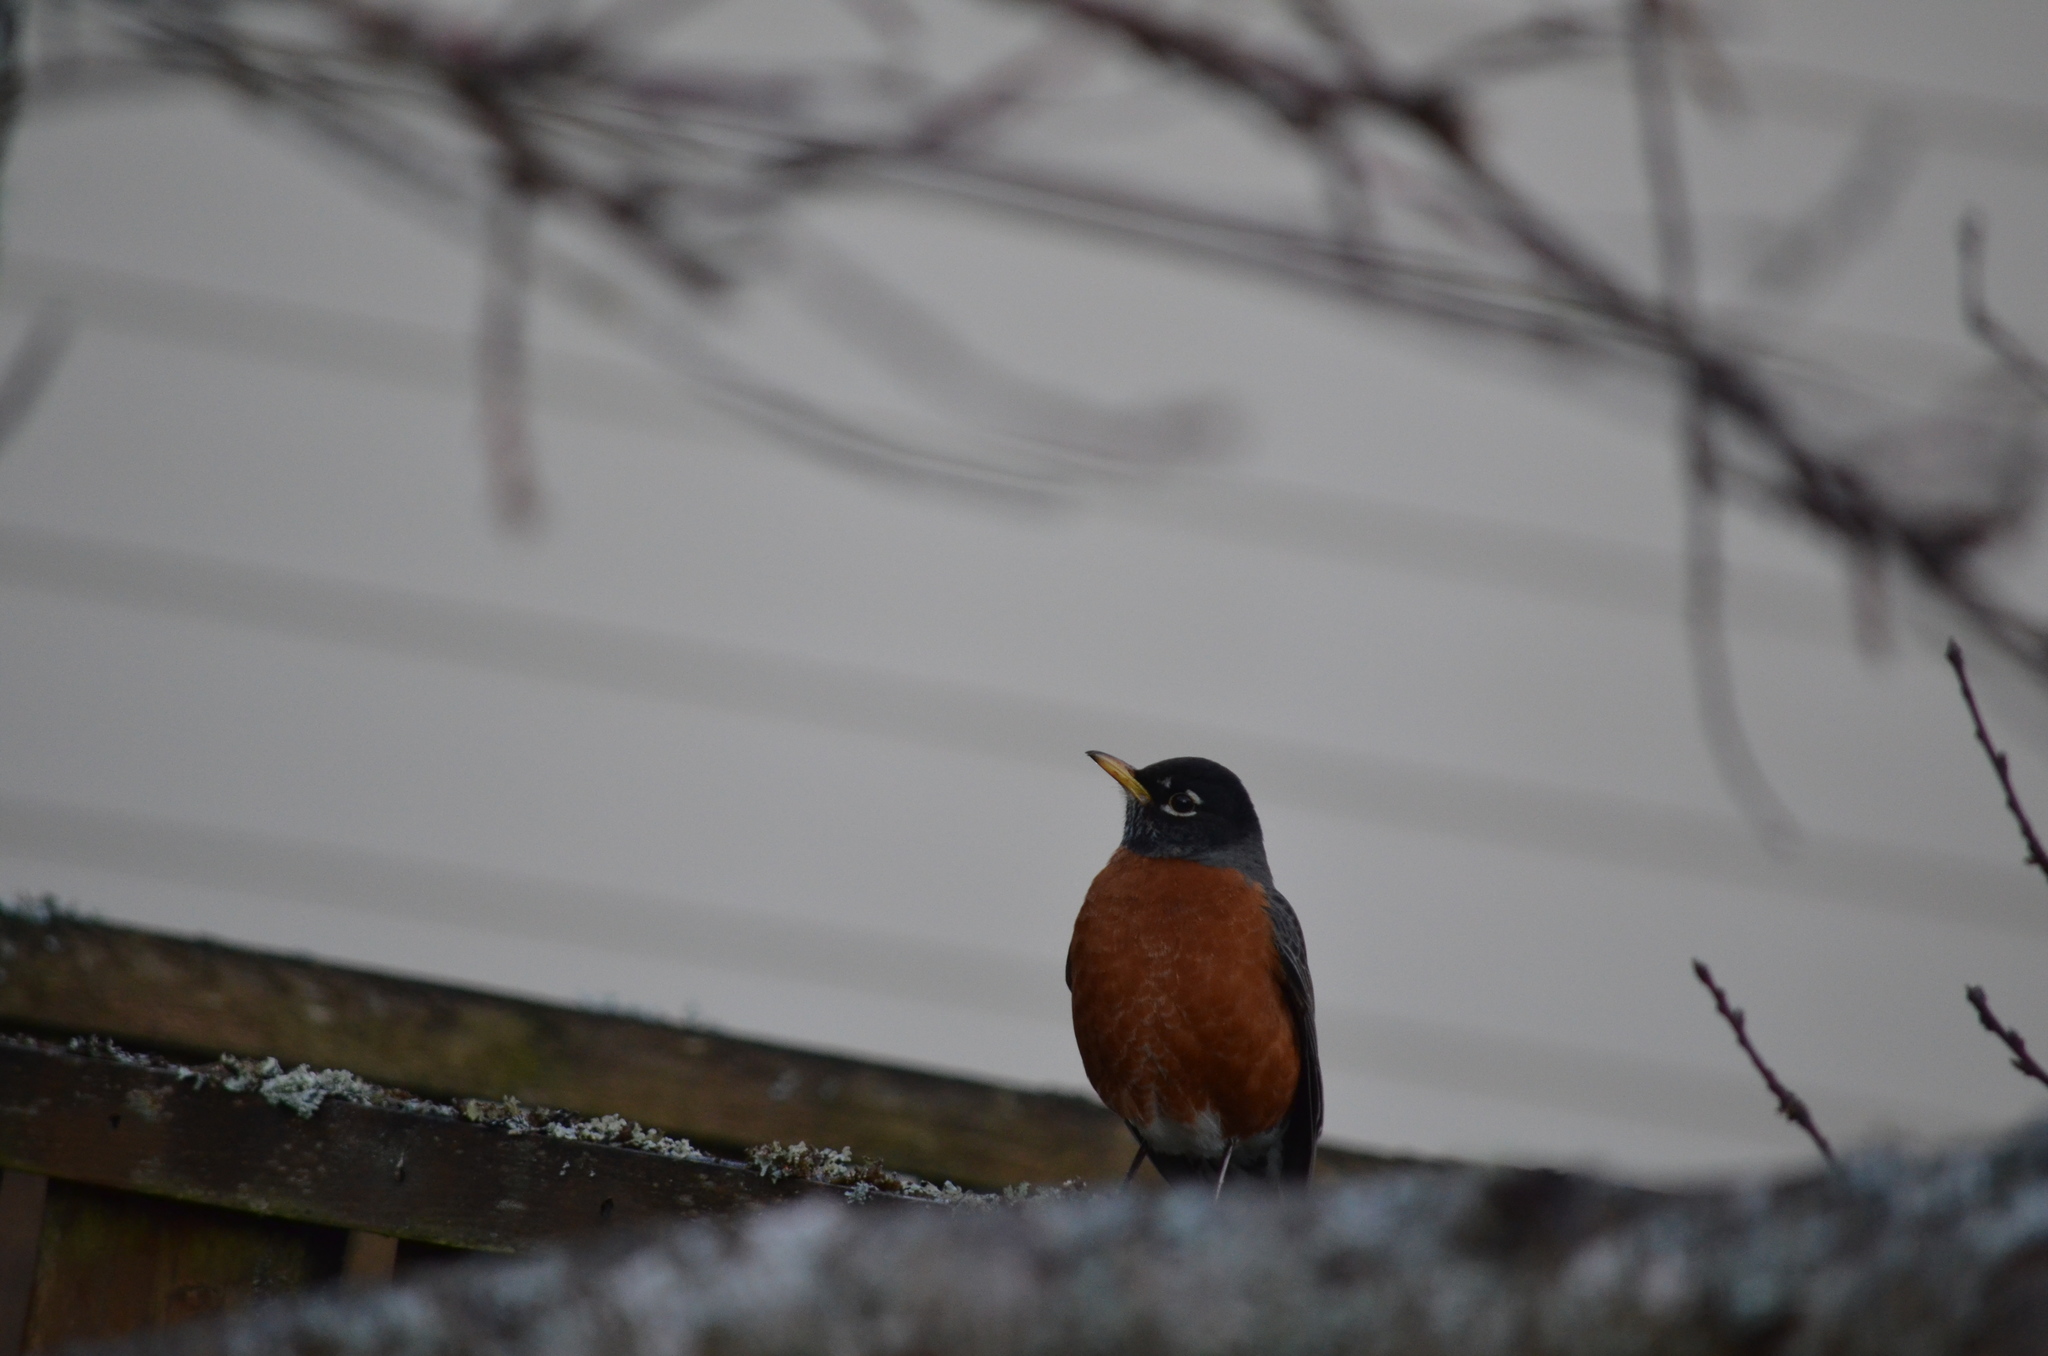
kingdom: Animalia
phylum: Chordata
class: Aves
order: Passeriformes
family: Turdidae
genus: Turdus
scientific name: Turdus migratorius
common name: American robin
